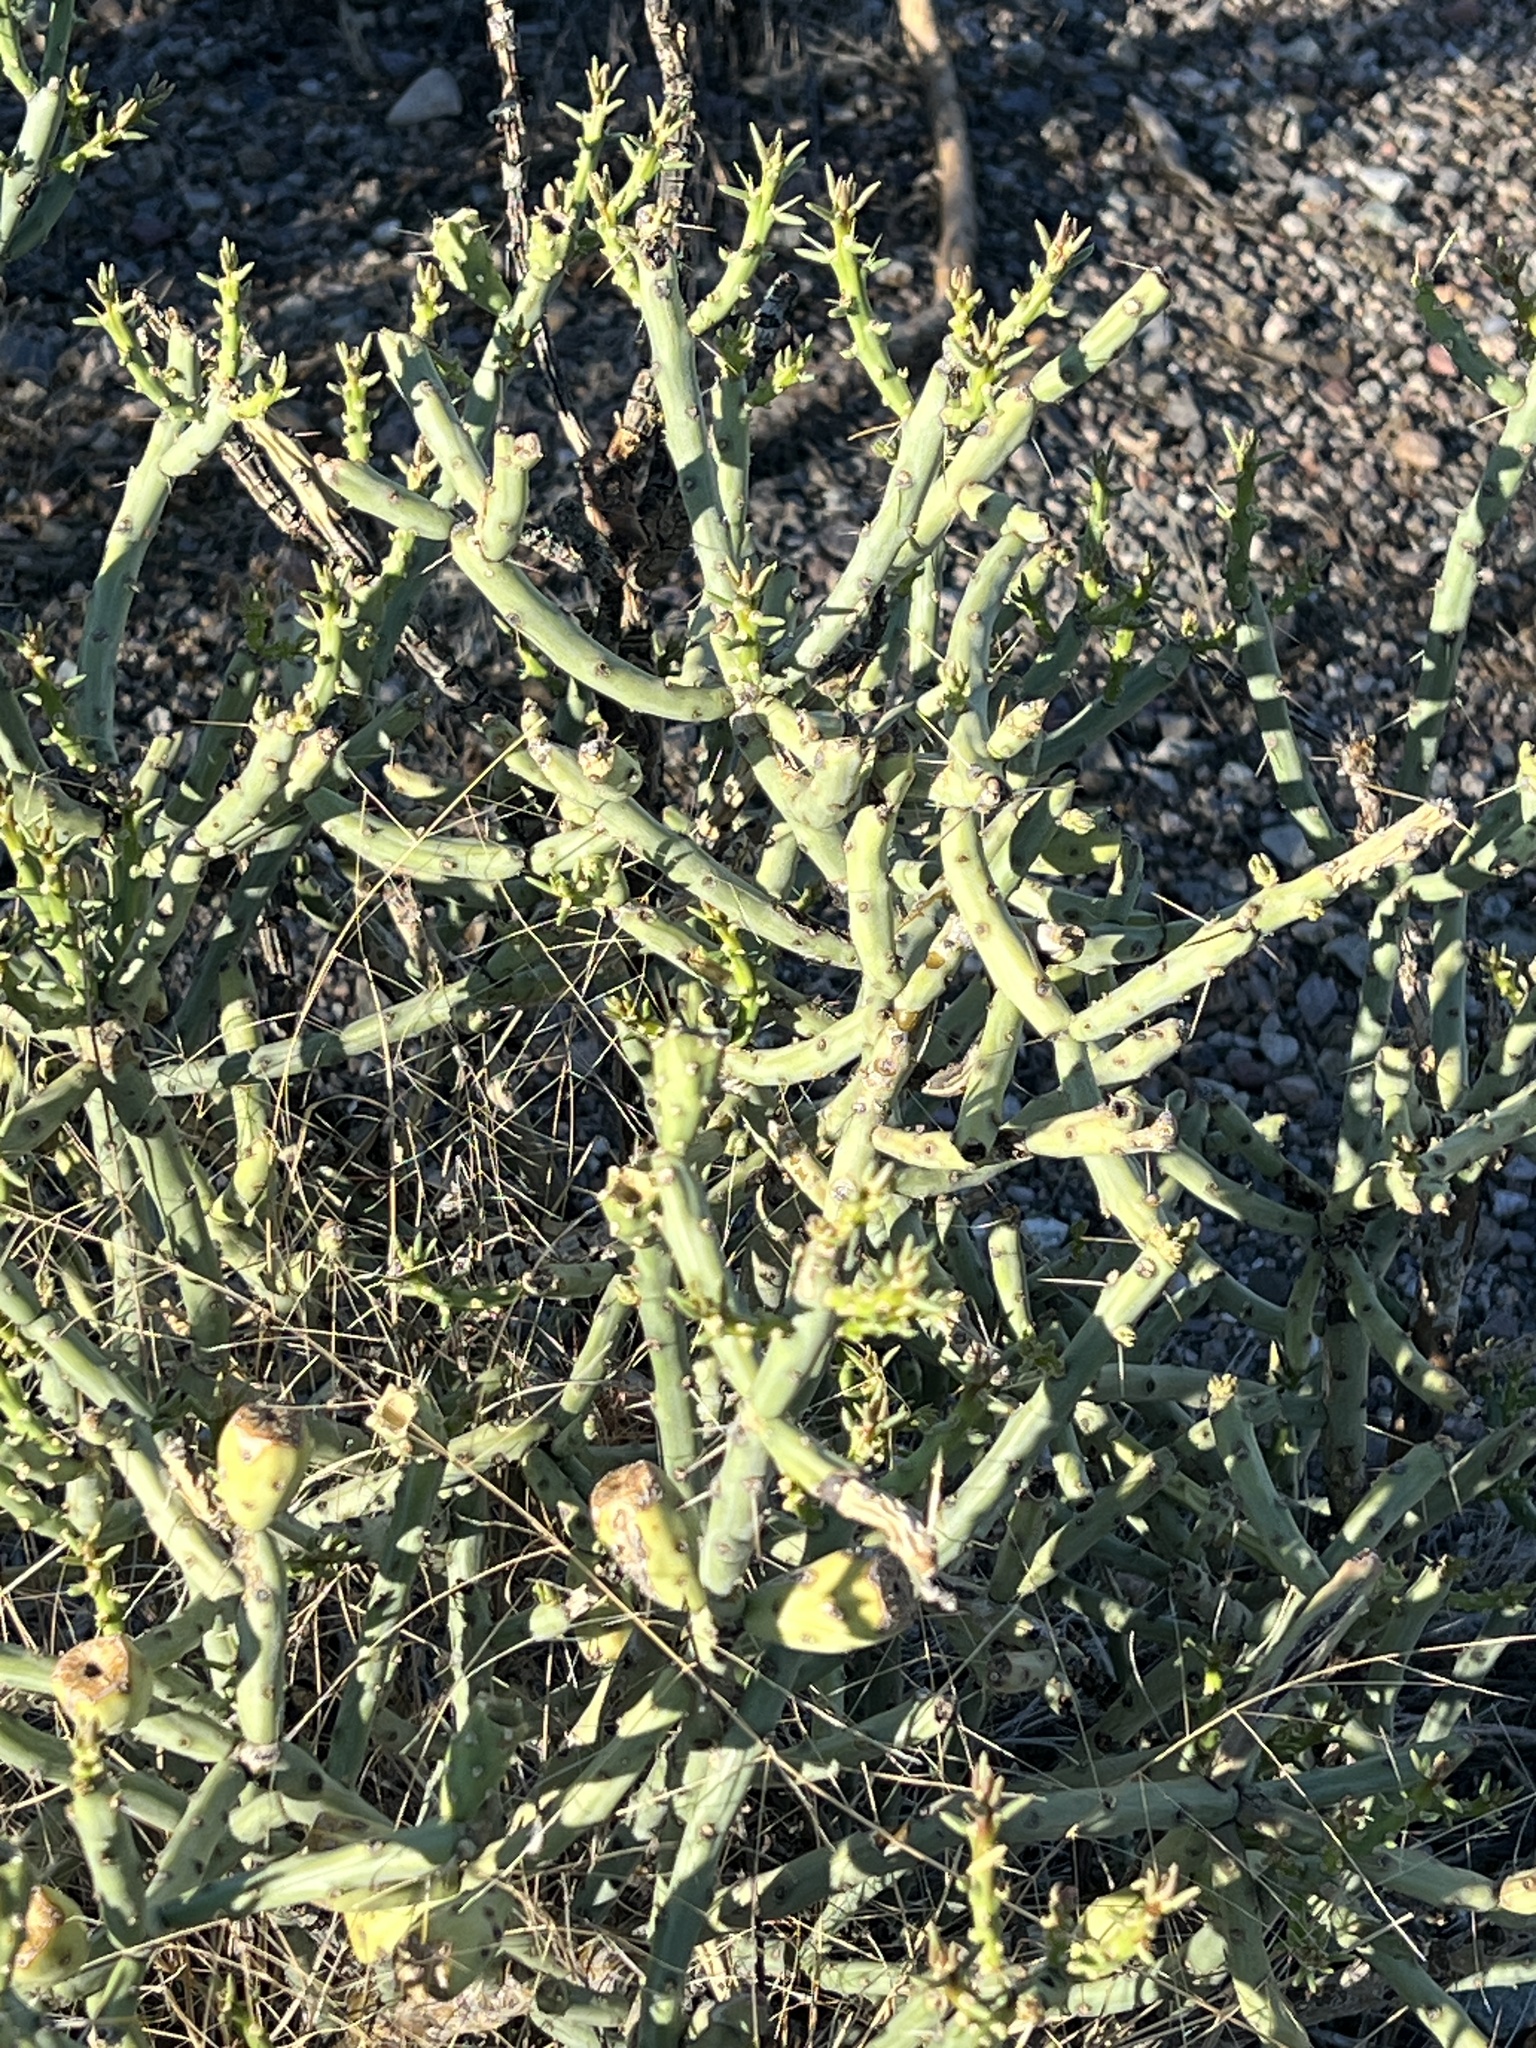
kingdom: Plantae
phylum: Tracheophyta
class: Magnoliopsida
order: Caryophyllales
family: Cactaceae
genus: Cylindropuntia
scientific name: Cylindropuntia arbuscula
